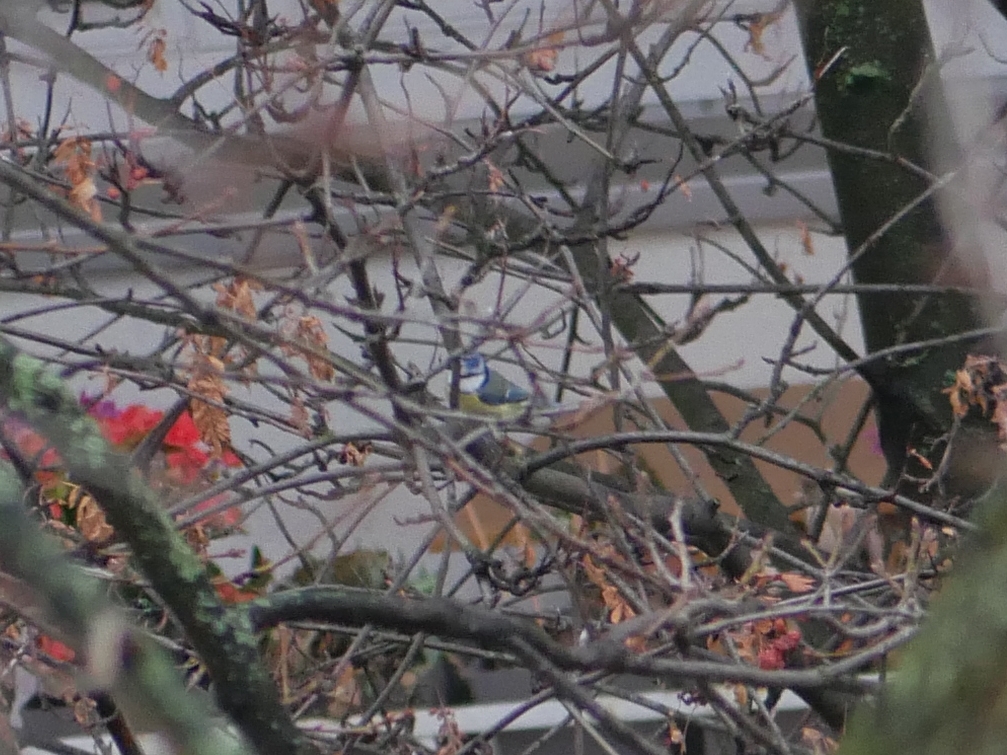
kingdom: Animalia
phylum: Chordata
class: Aves
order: Passeriformes
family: Paridae
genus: Cyanistes
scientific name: Cyanistes caeruleus
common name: Eurasian blue tit
